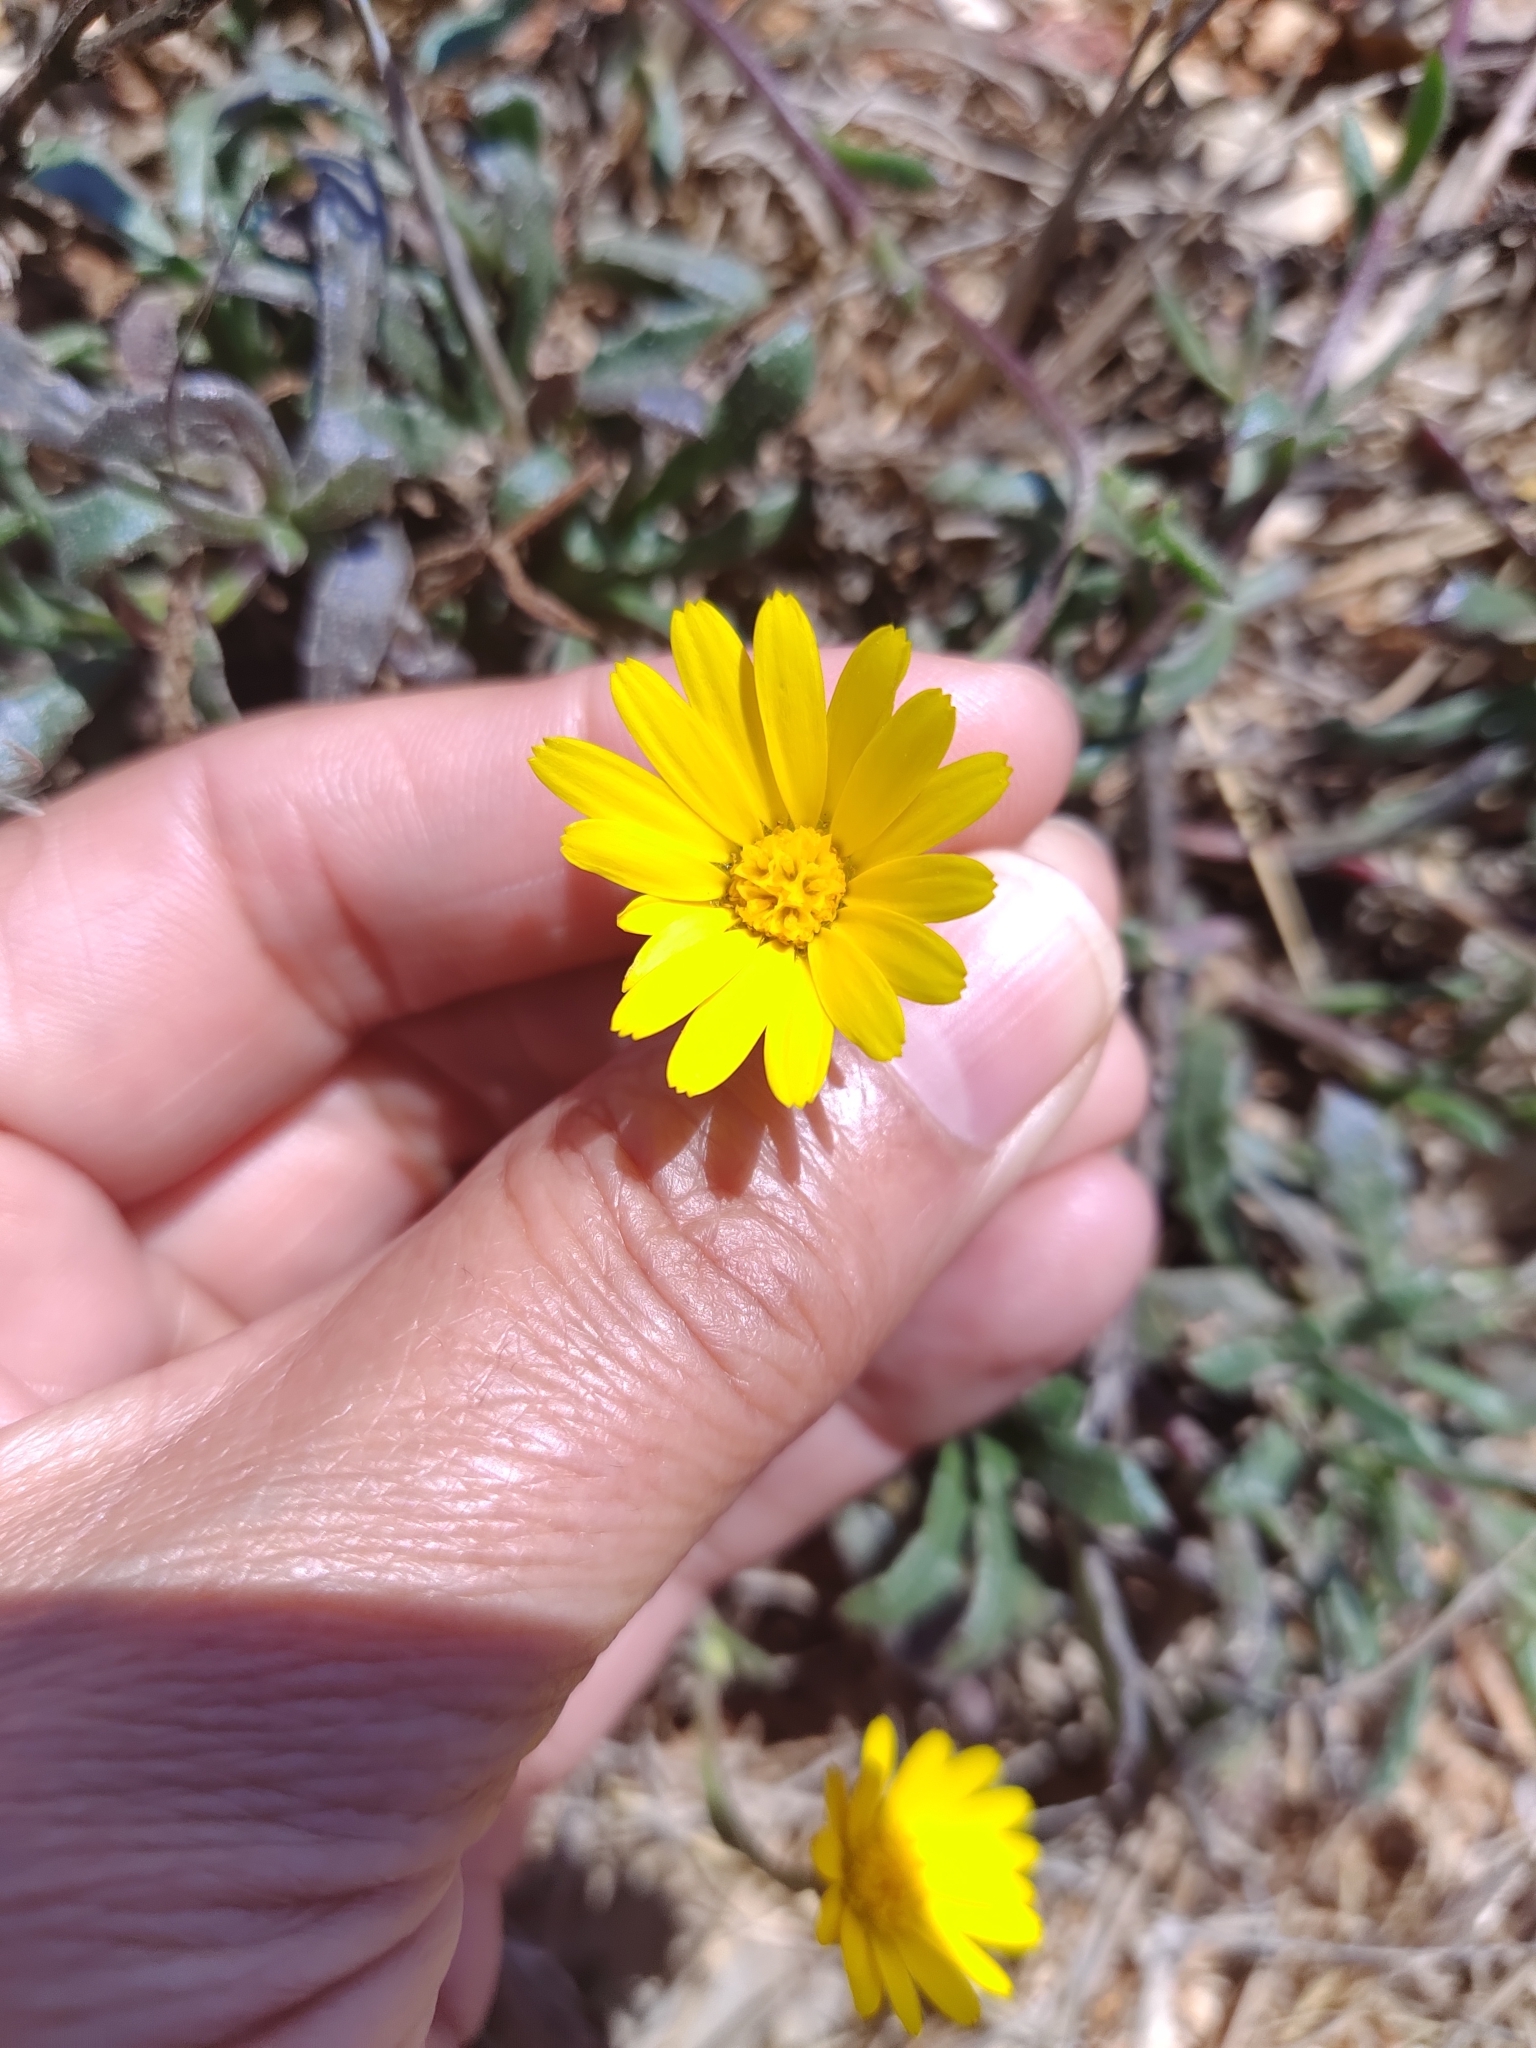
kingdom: Plantae
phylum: Tracheophyta
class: Magnoliopsida
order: Asterales
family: Asteraceae
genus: Calendula
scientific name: Calendula suffruticosa
